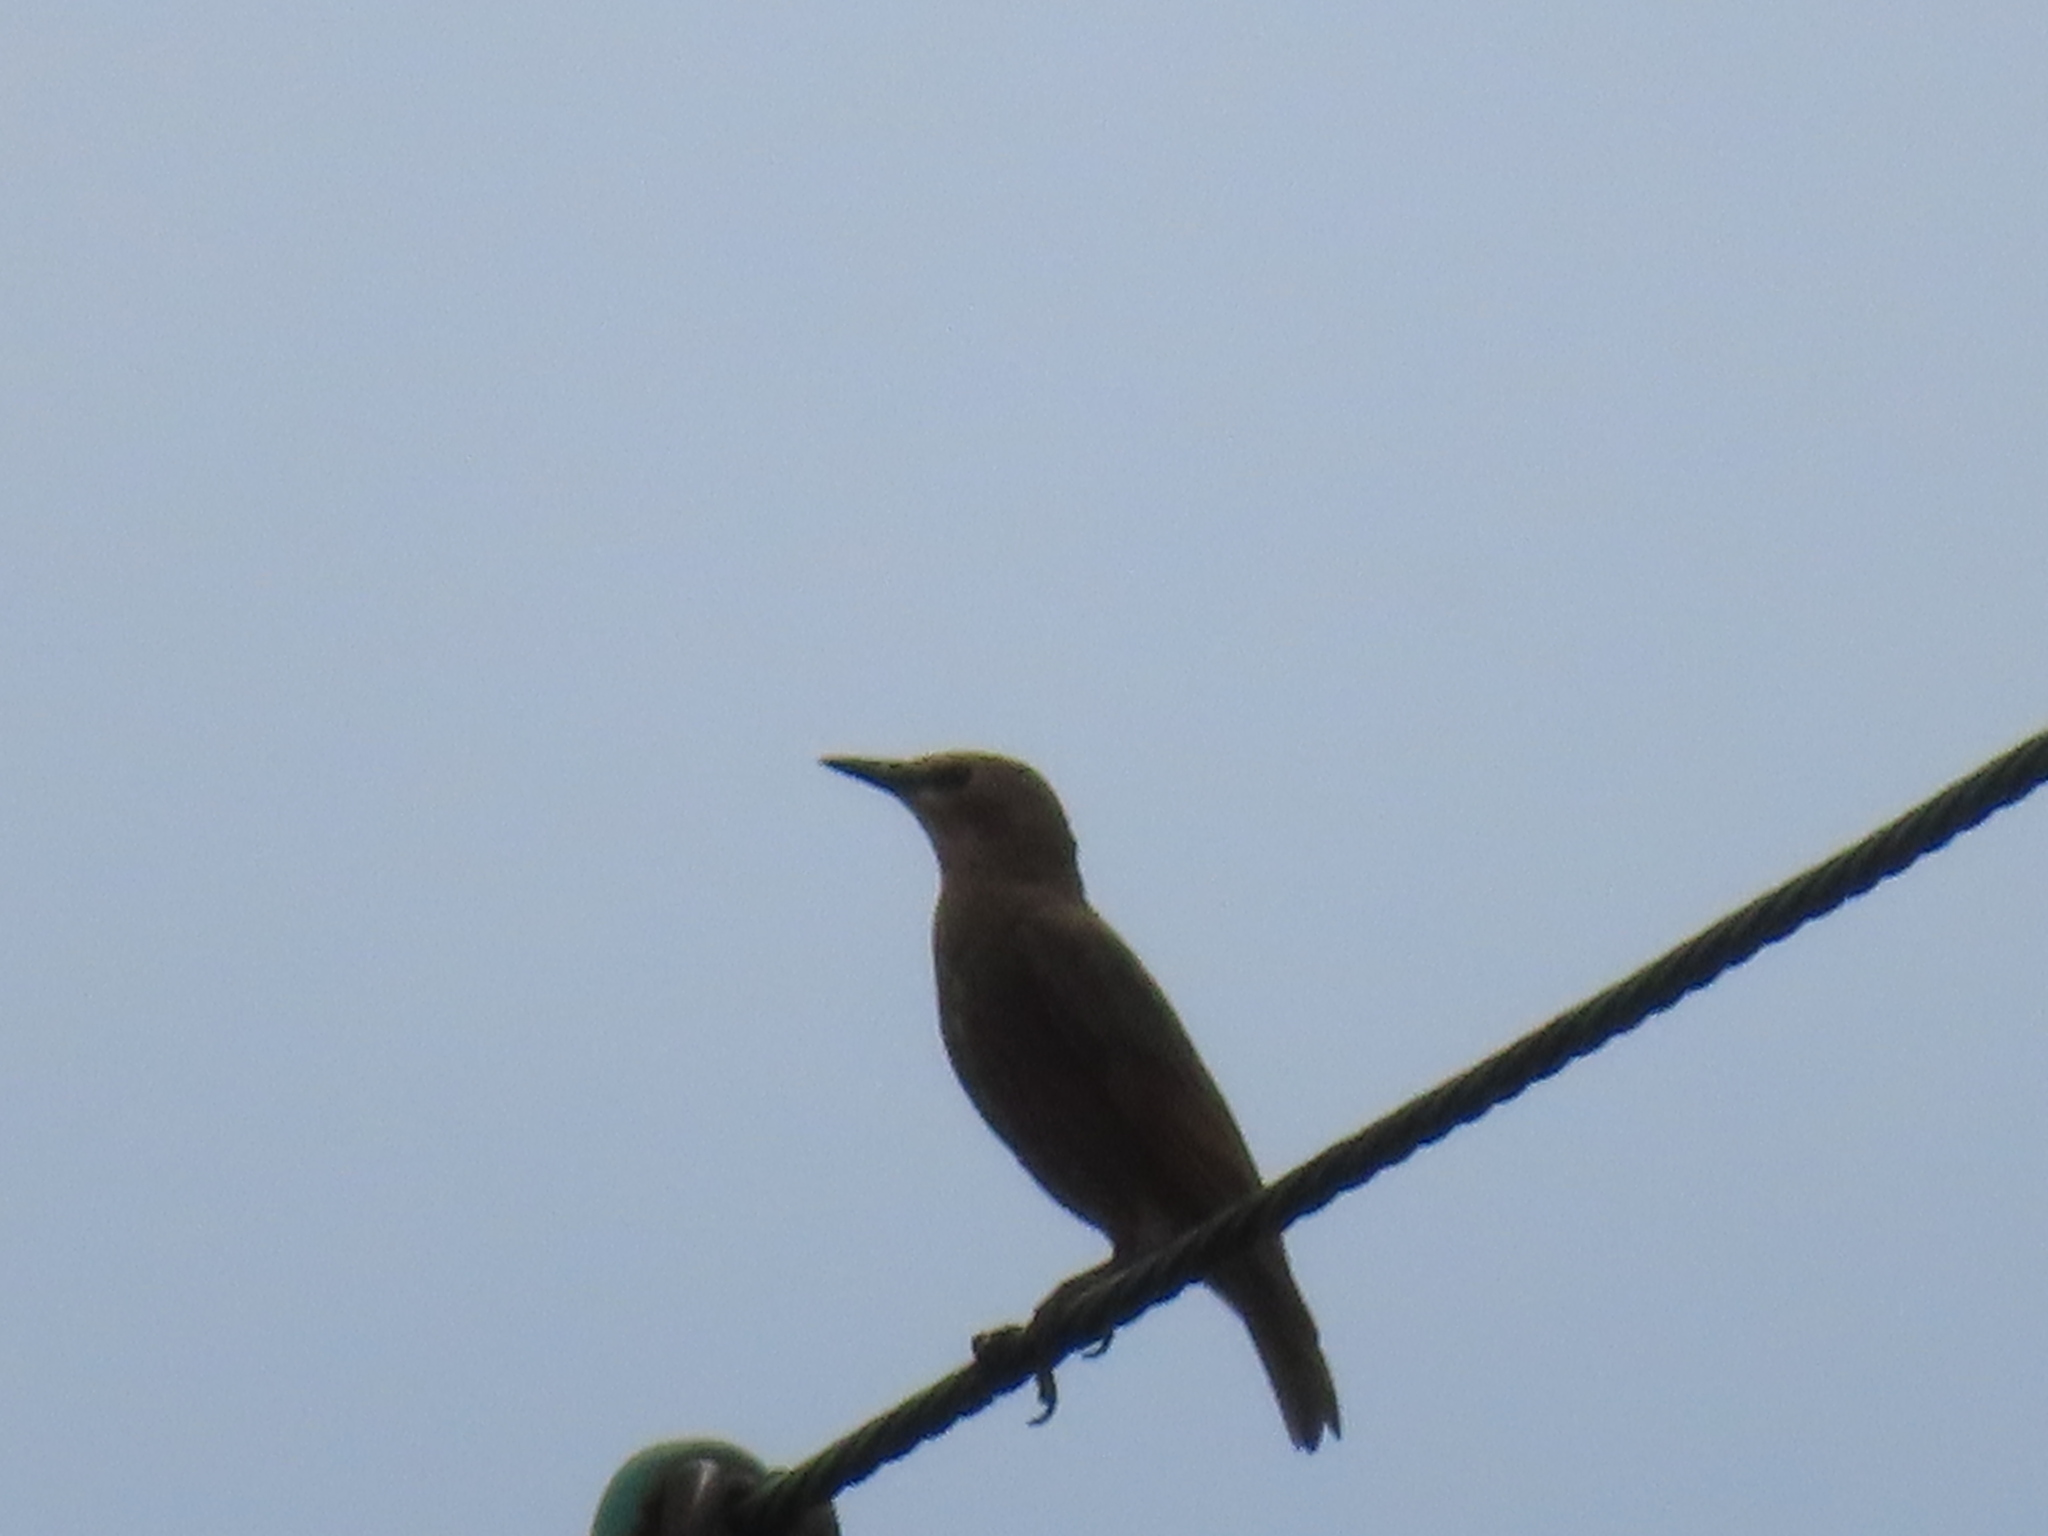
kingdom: Animalia
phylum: Chordata
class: Aves
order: Passeriformes
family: Sturnidae
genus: Sturnus
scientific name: Sturnus vulgaris
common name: Common starling
